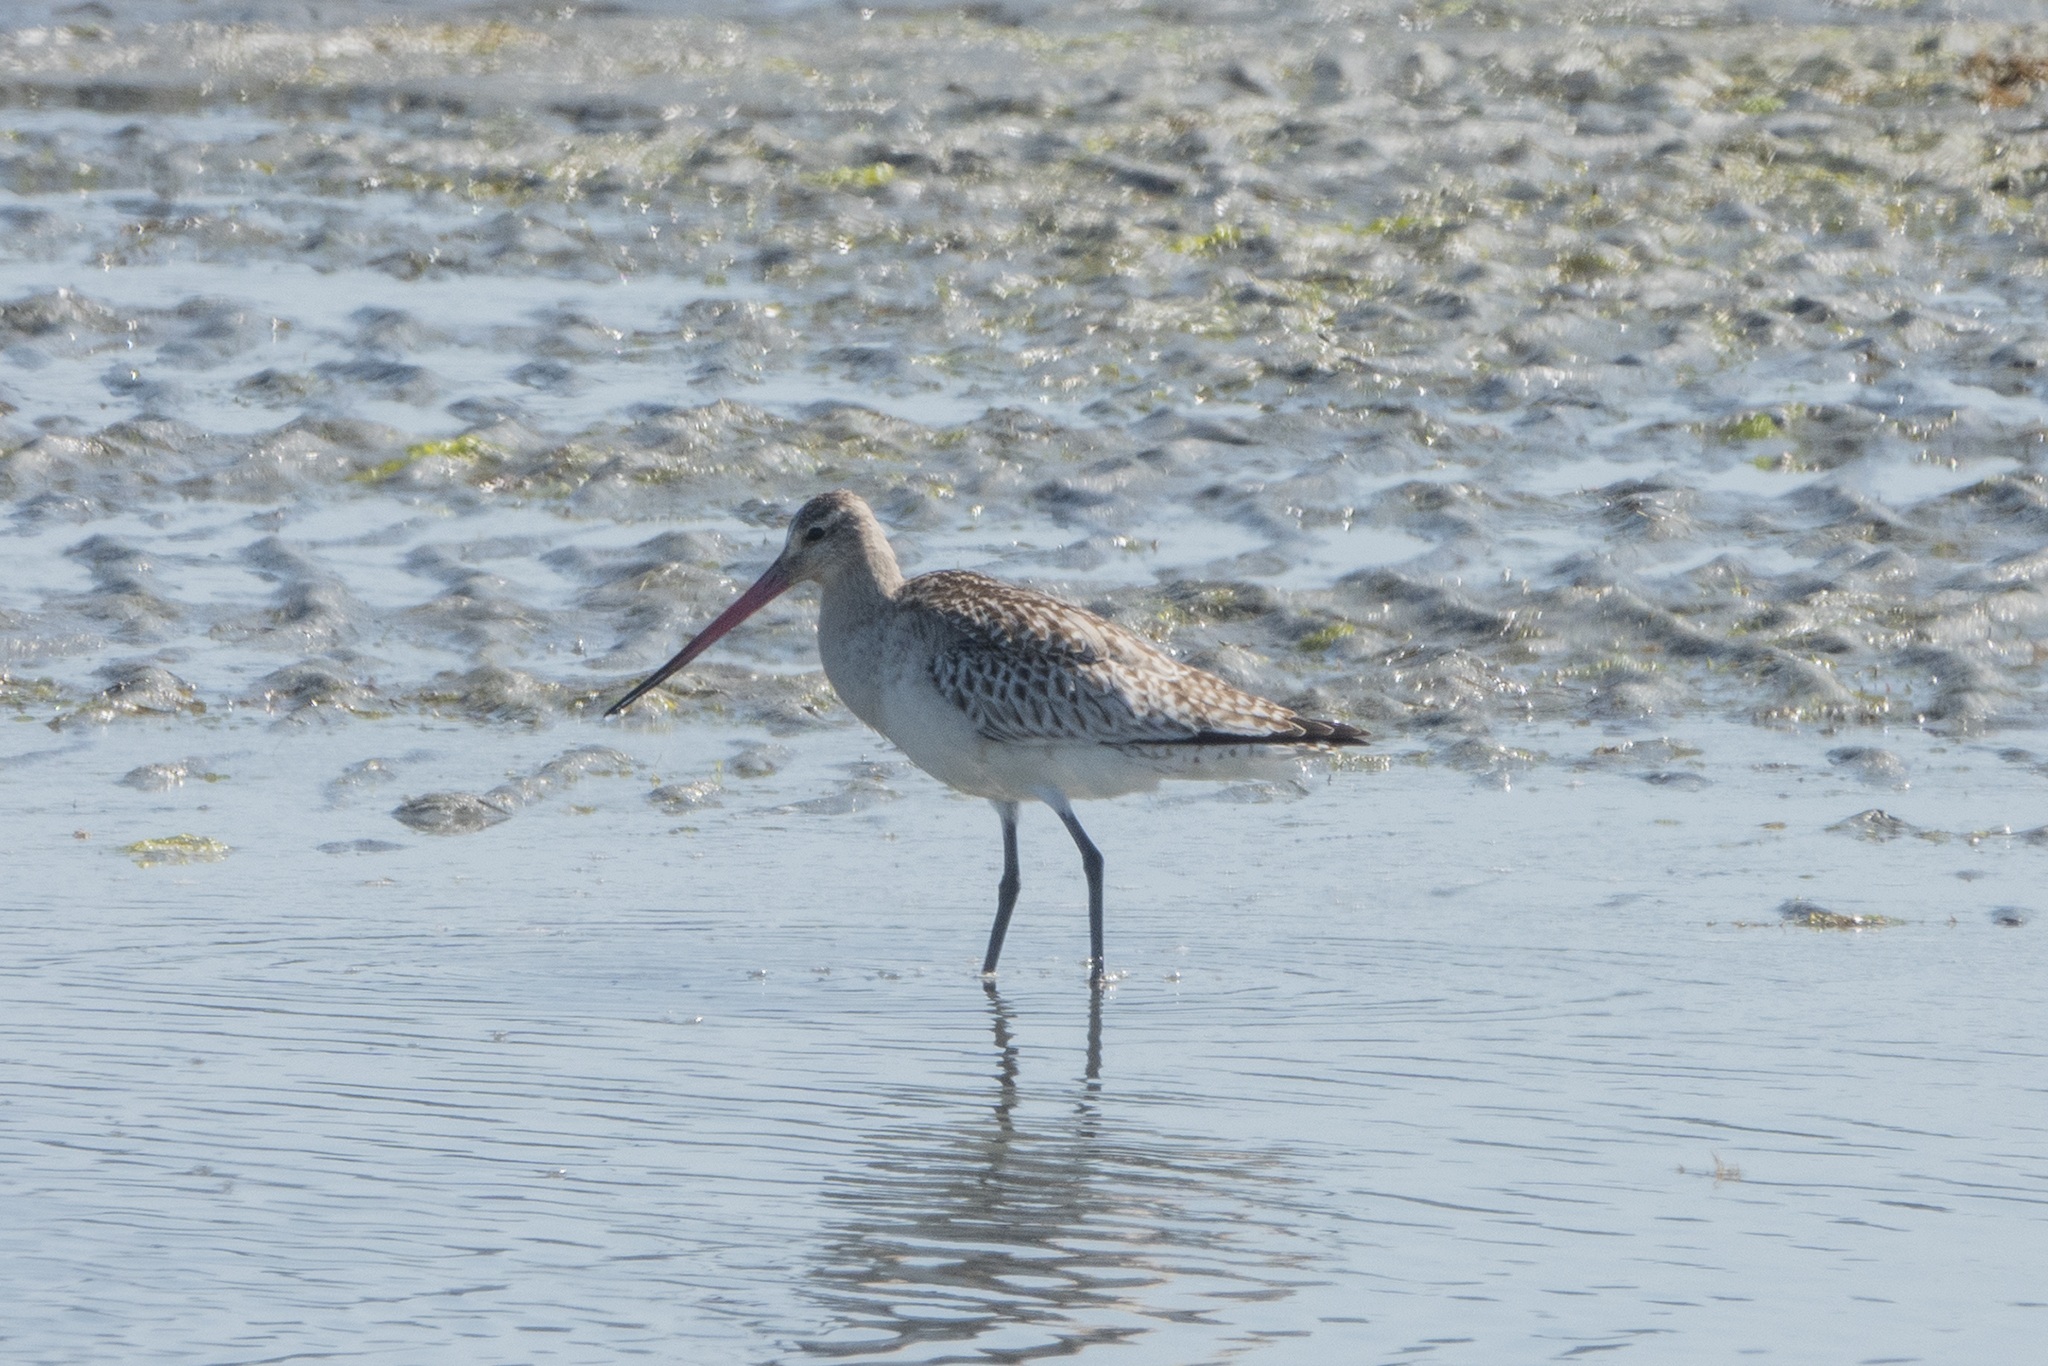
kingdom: Animalia
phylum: Chordata
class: Aves
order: Charadriiformes
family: Scolopacidae
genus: Limosa
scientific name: Limosa lapponica
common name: Bar-tailed godwit
